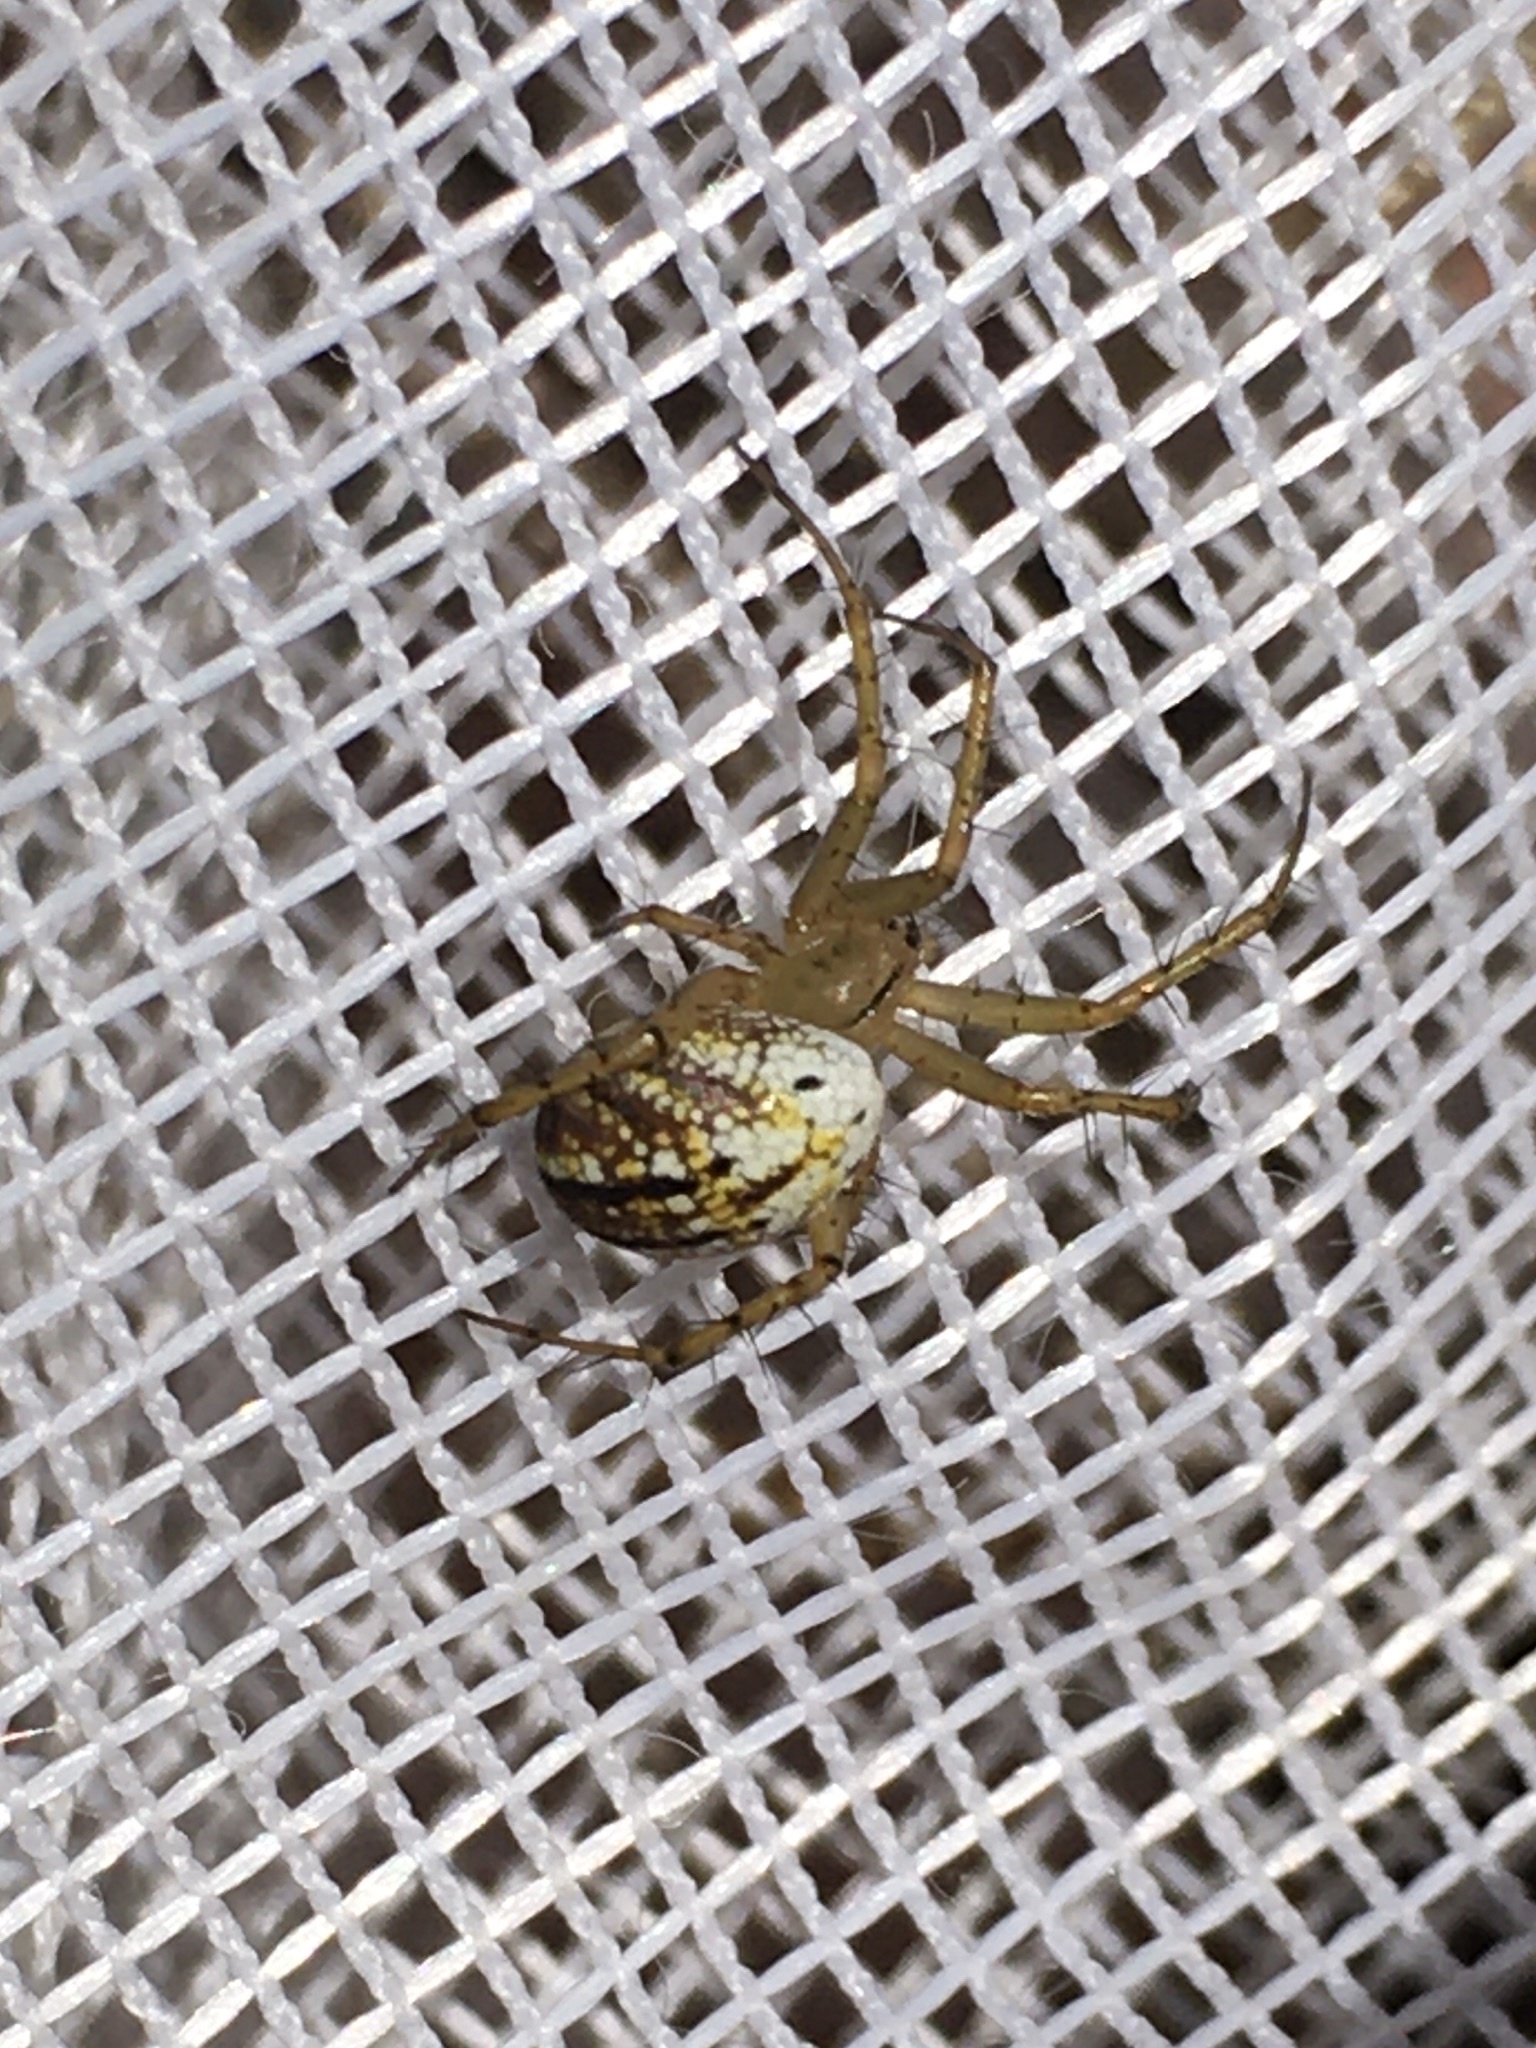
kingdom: Animalia
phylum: Arthropoda
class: Arachnida
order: Araneae
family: Araneidae
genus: Mangora
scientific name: Mangora gibberosa
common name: Lined orbweaver
